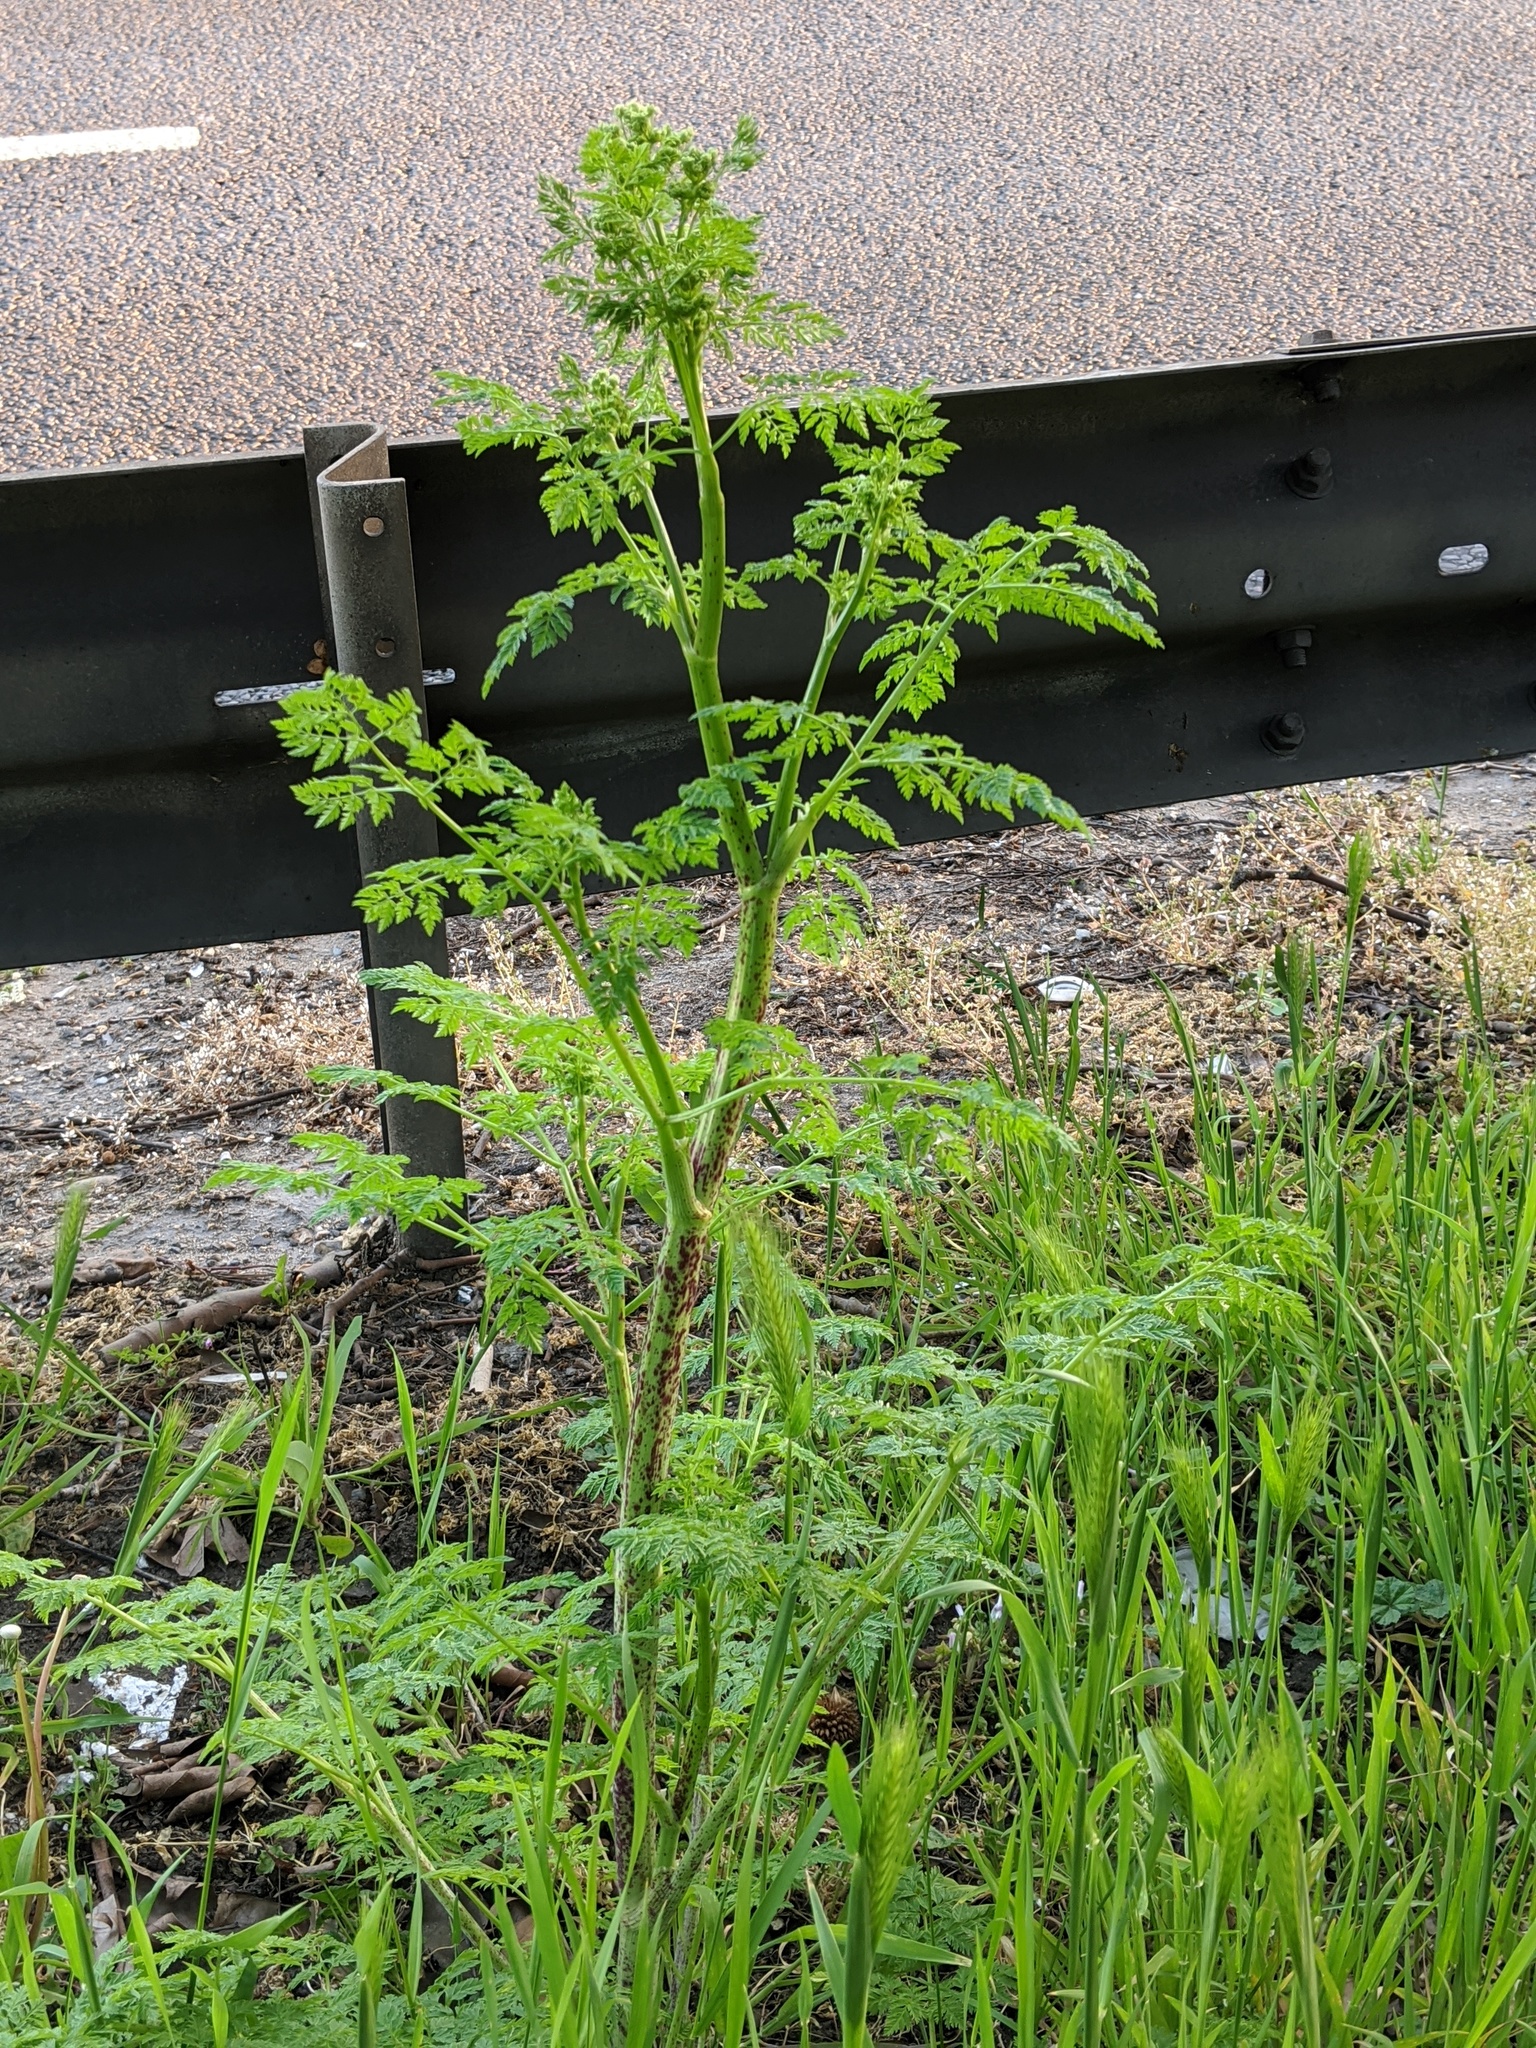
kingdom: Plantae
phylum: Tracheophyta
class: Magnoliopsida
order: Apiales
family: Apiaceae
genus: Conium
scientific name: Conium maculatum
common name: Hemlock
